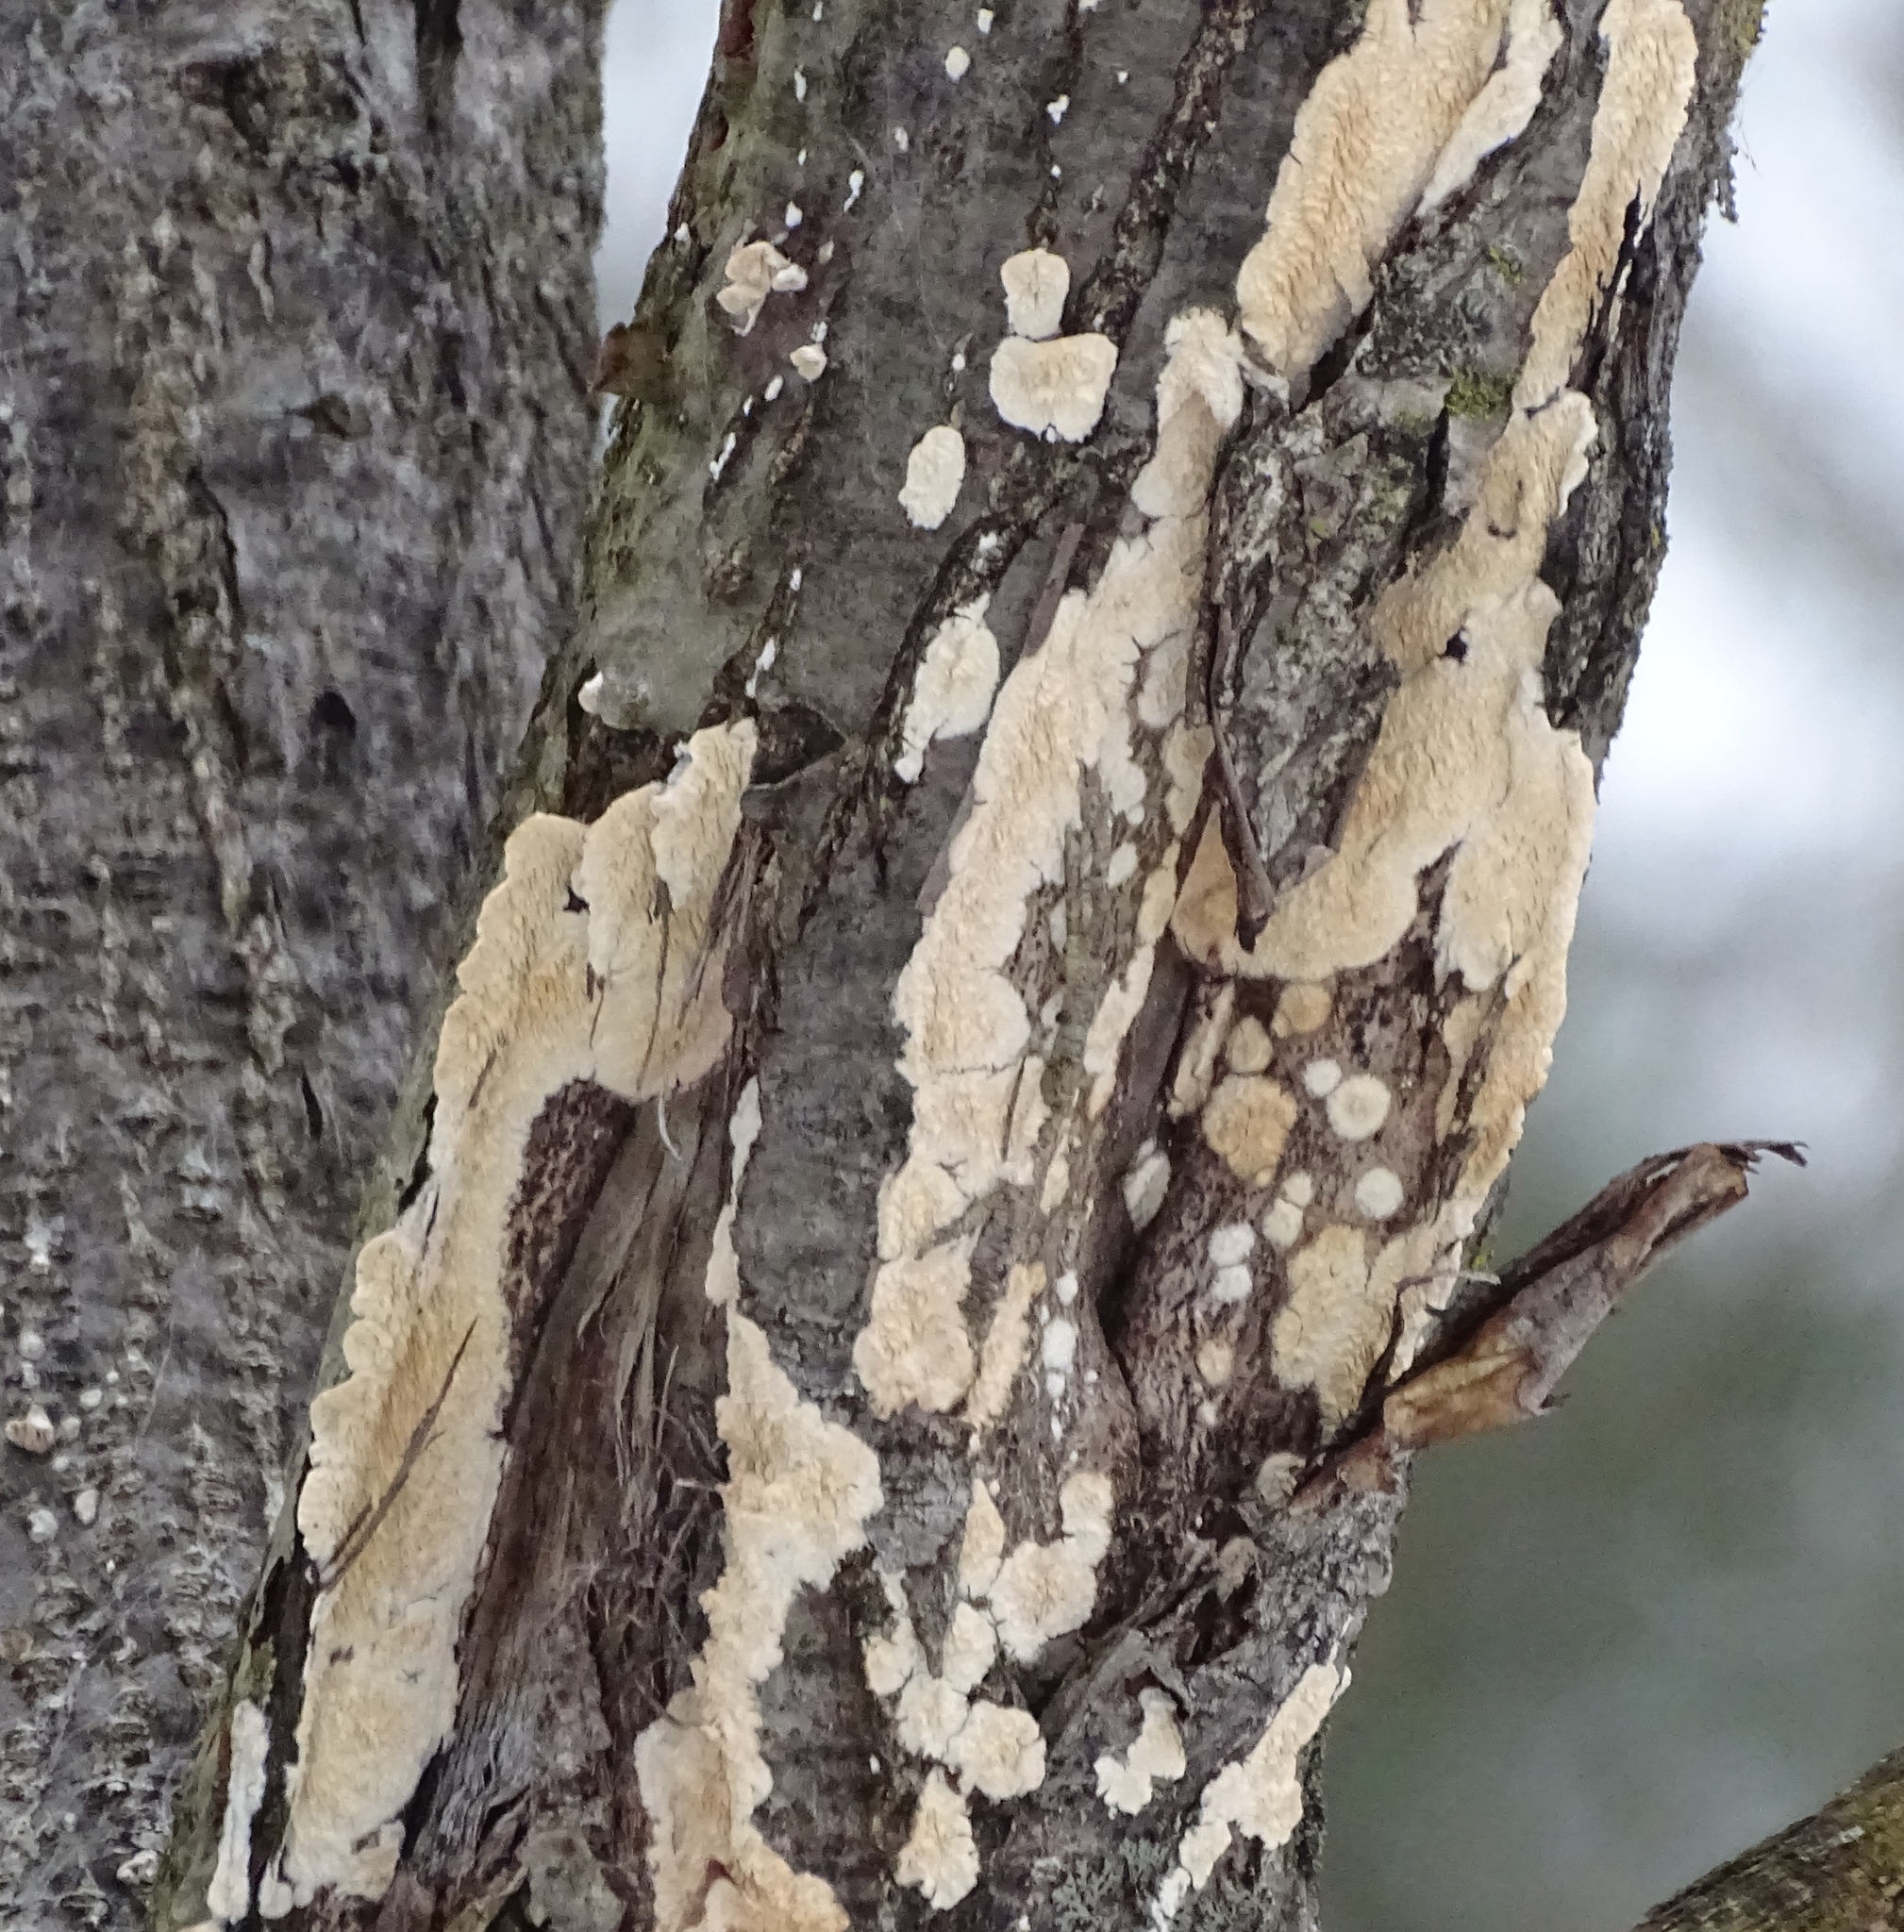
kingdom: Fungi
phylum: Basidiomycota
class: Agaricomycetes
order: Polyporales
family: Irpicaceae
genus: Irpex
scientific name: Irpex lacteus
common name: Milk-white toothed polypore
